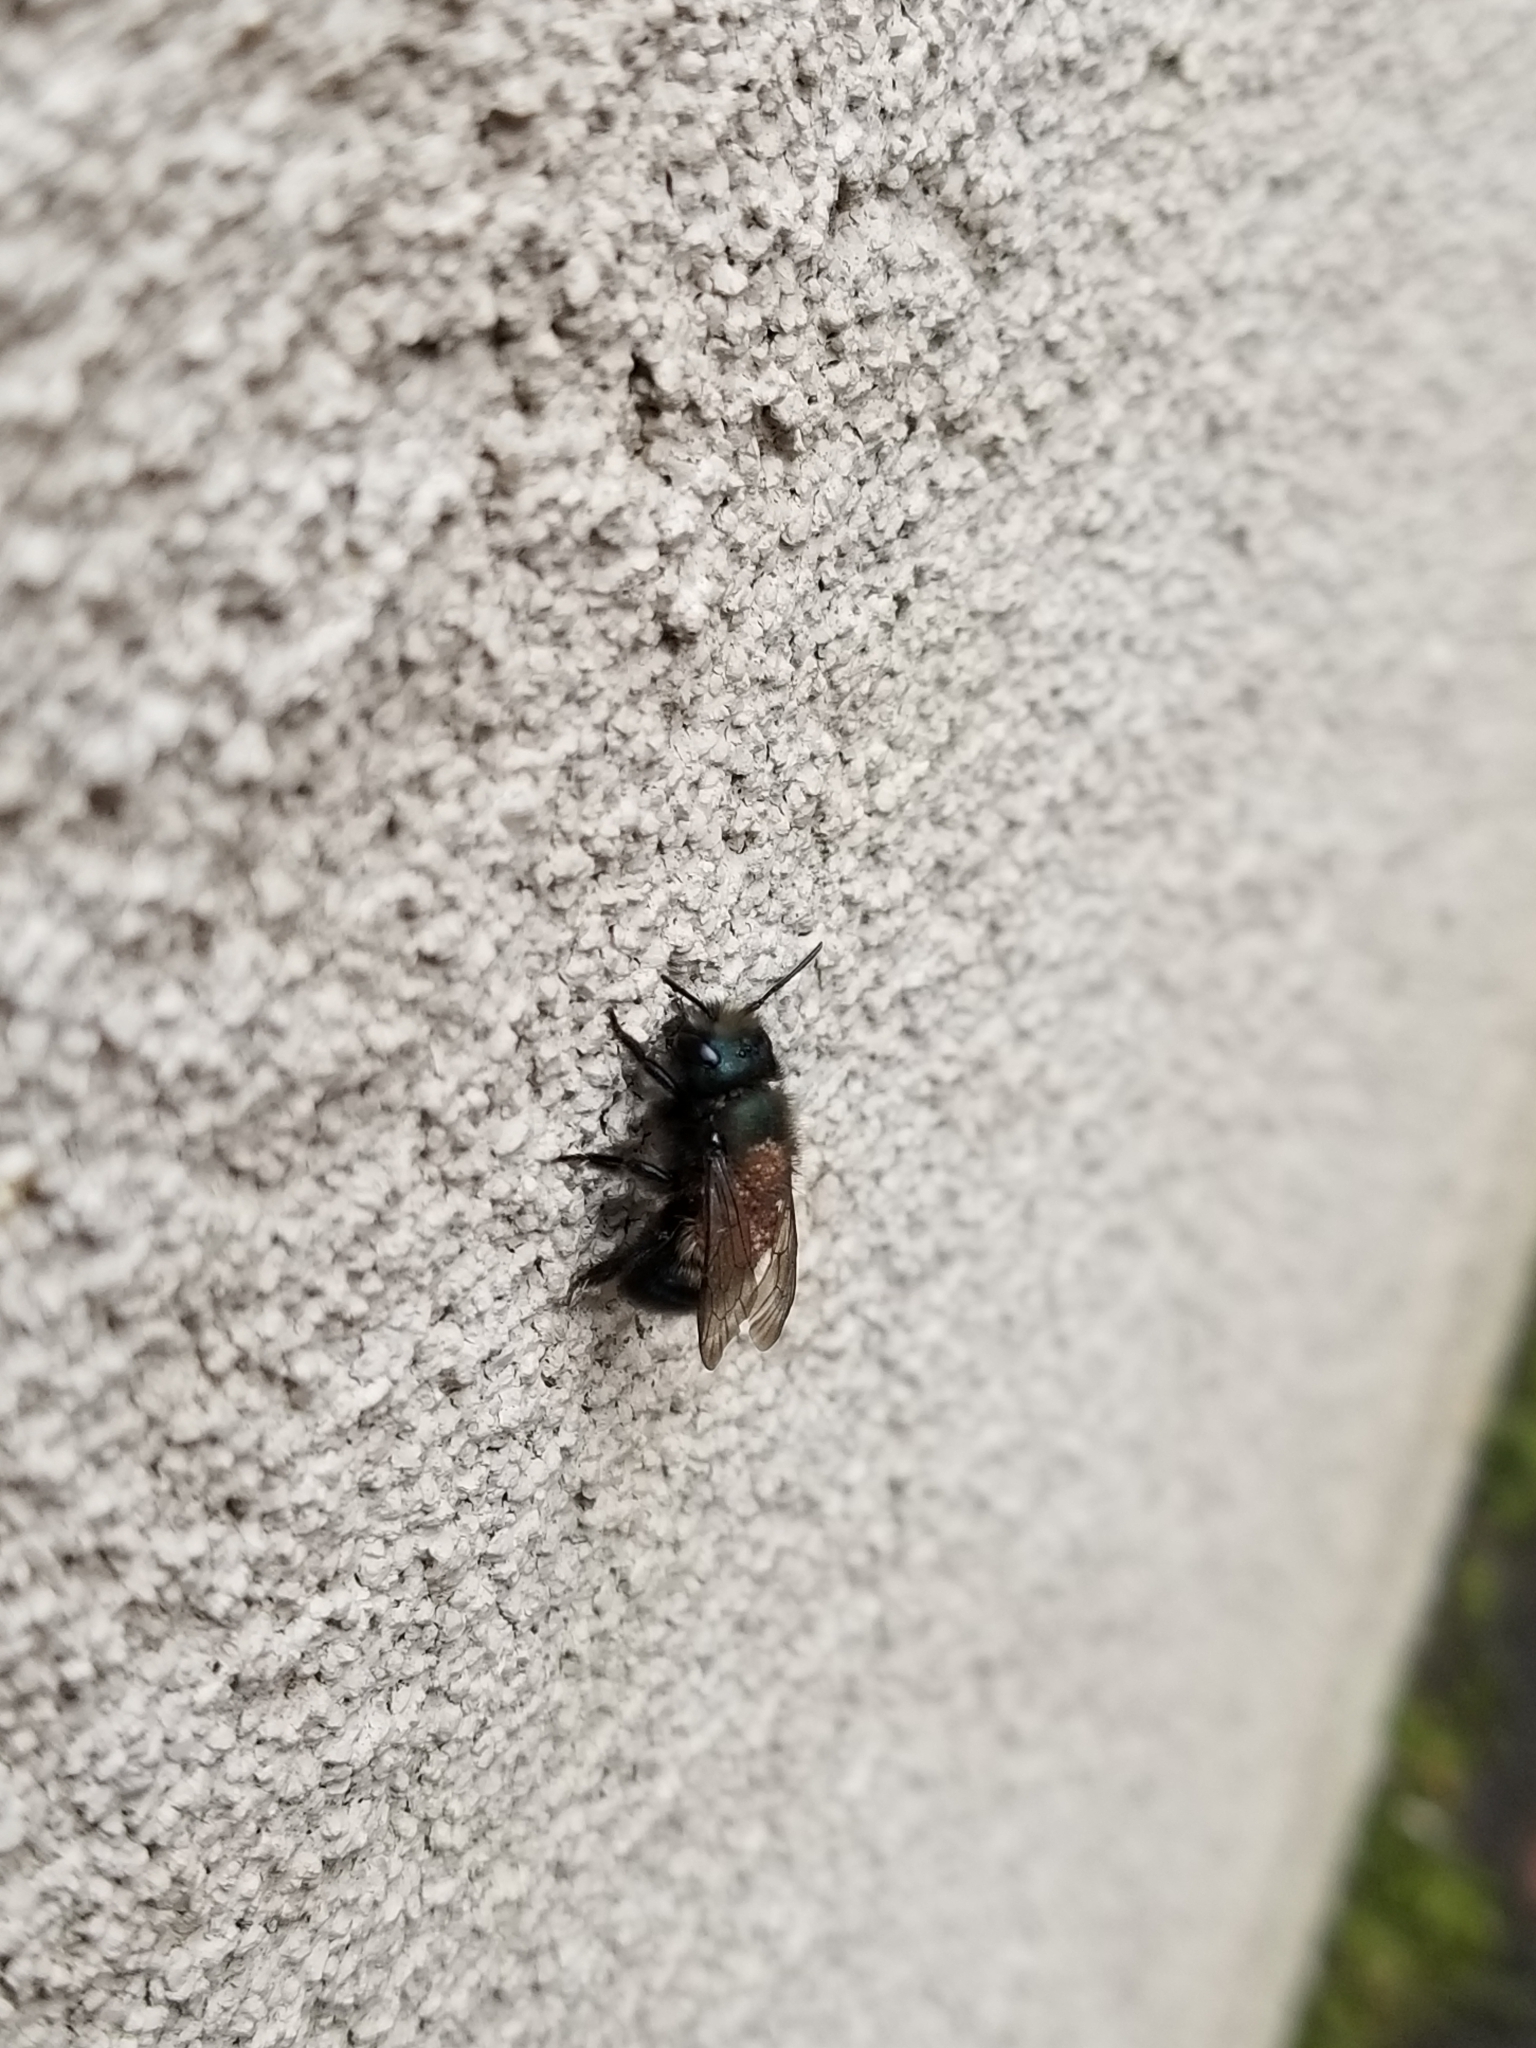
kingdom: Animalia
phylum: Arthropoda
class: Insecta
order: Hymenoptera
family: Megachilidae
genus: Osmia
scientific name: Osmia lignaria
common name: Blue orchard bee
